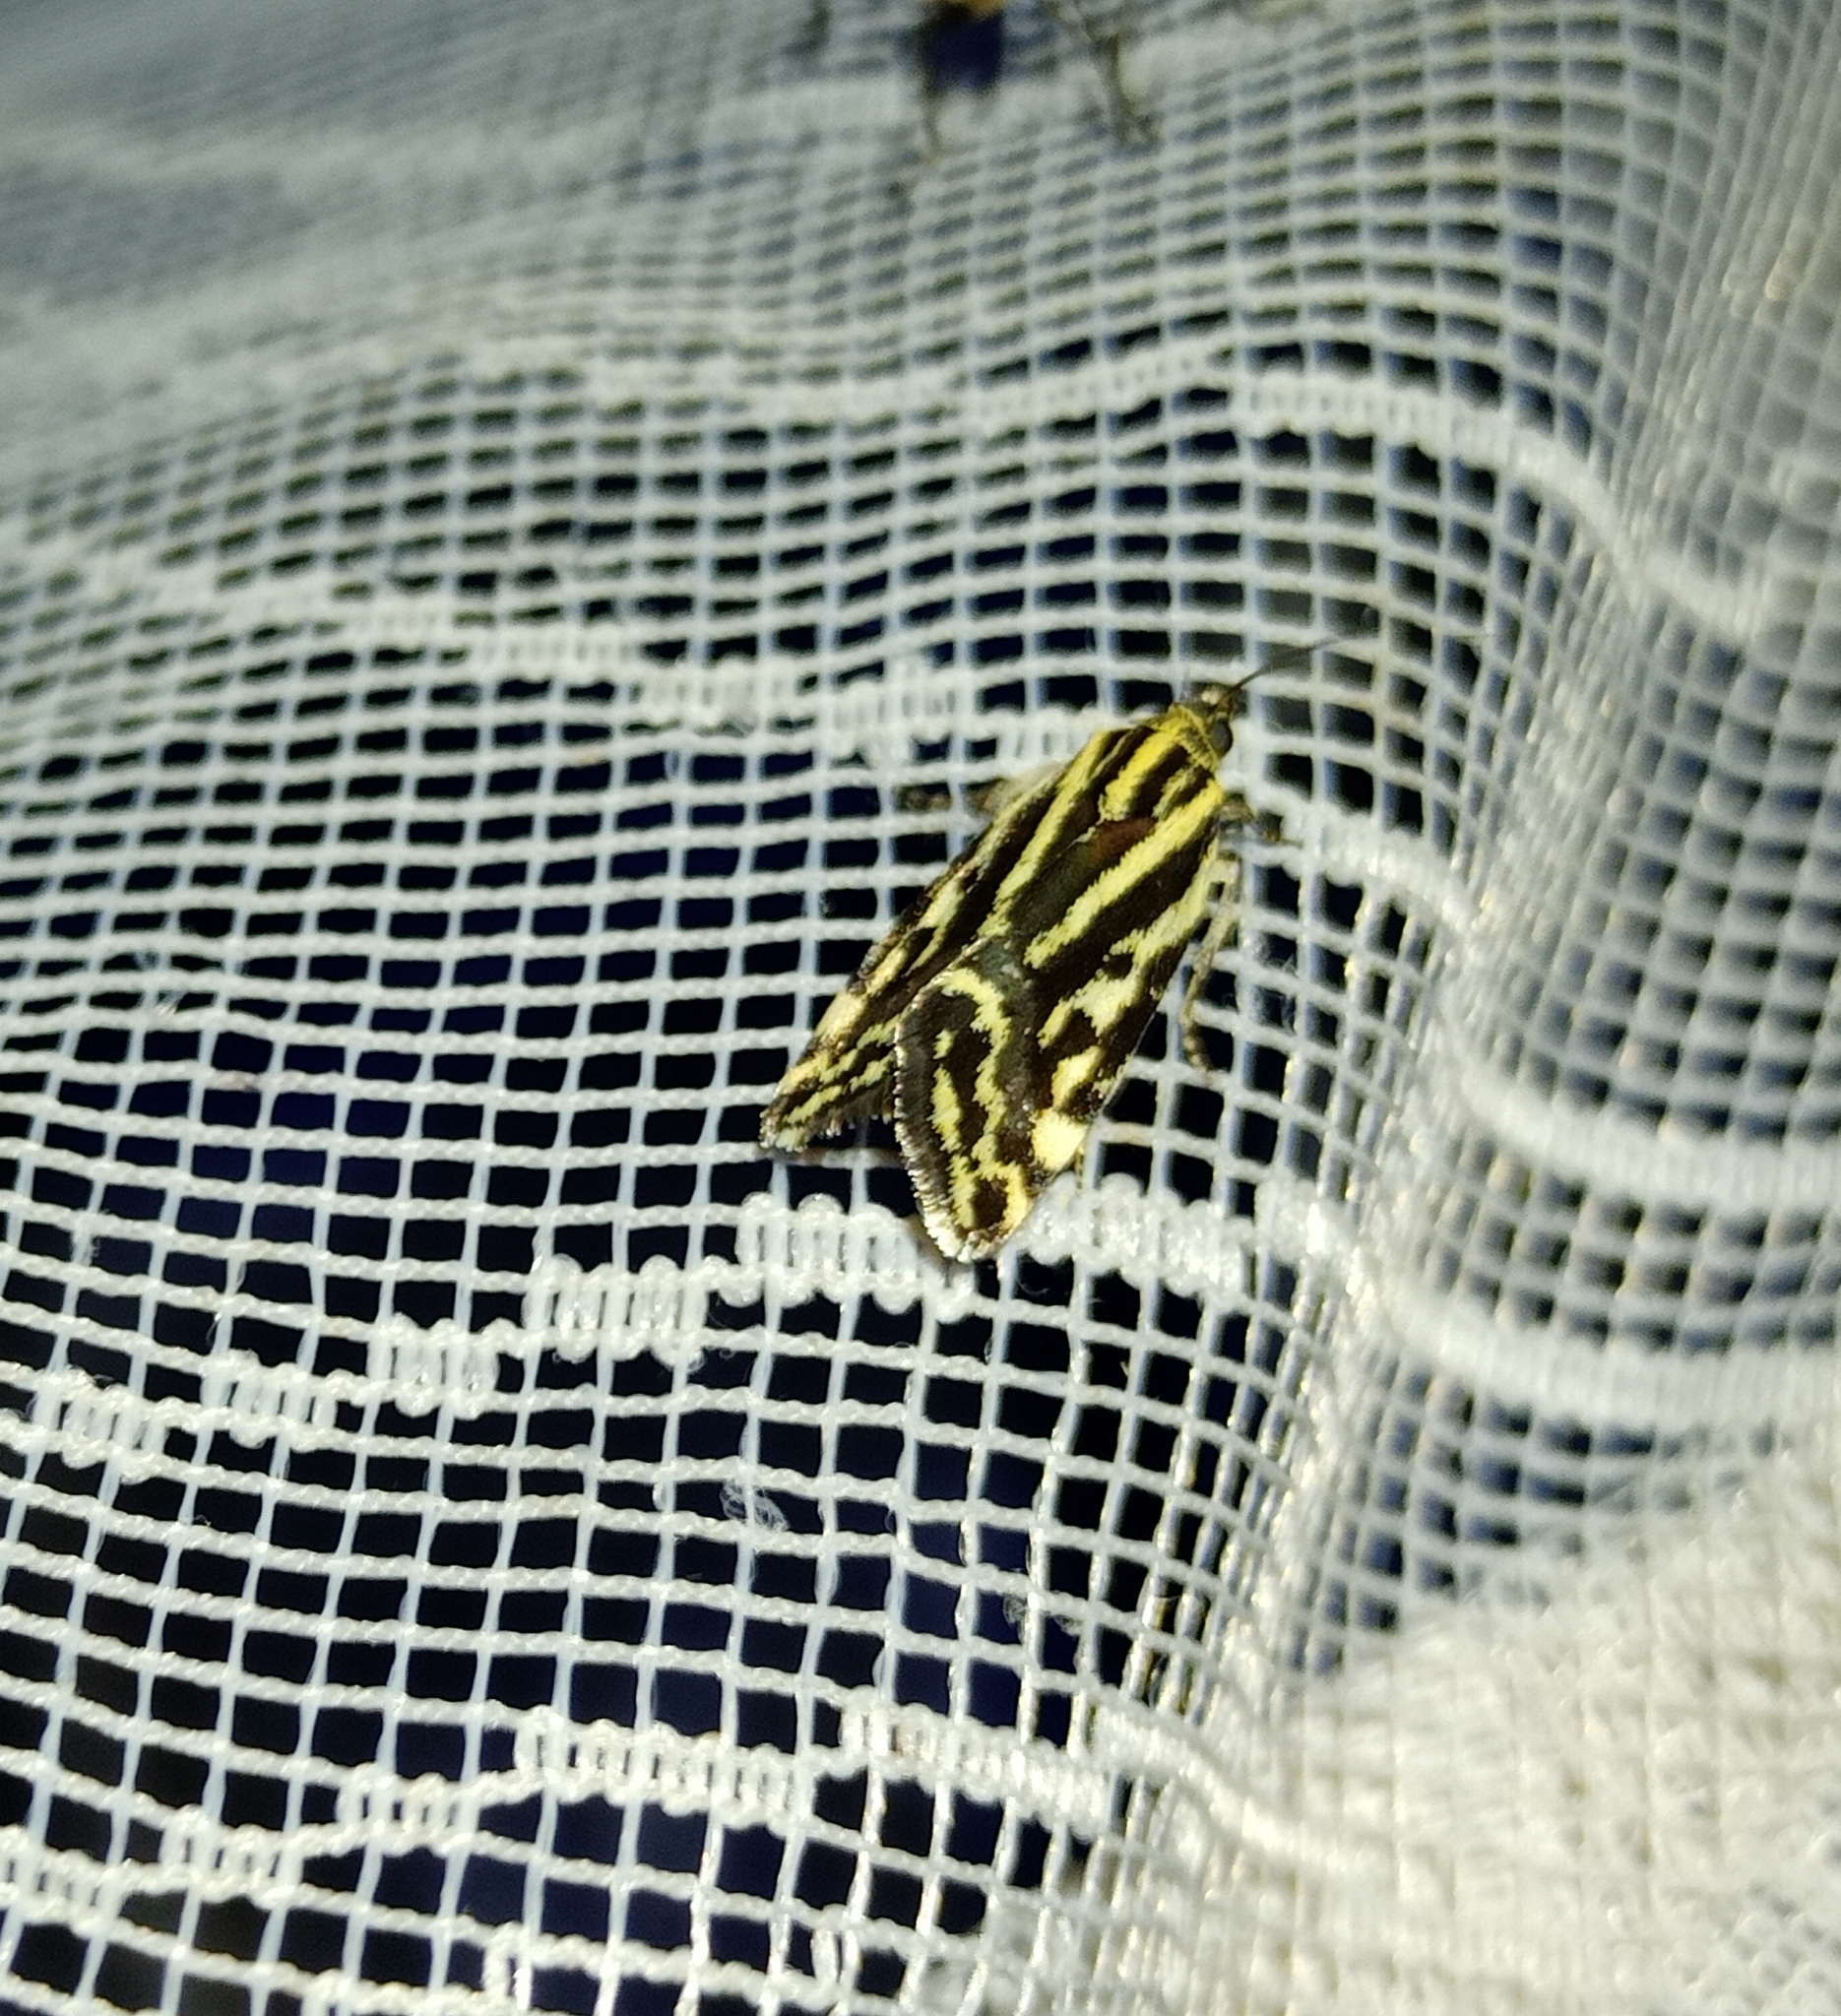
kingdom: Animalia
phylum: Arthropoda
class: Insecta
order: Lepidoptera
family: Noctuidae
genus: Acontia
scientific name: Acontia trabealis
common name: Spotted sulphur
